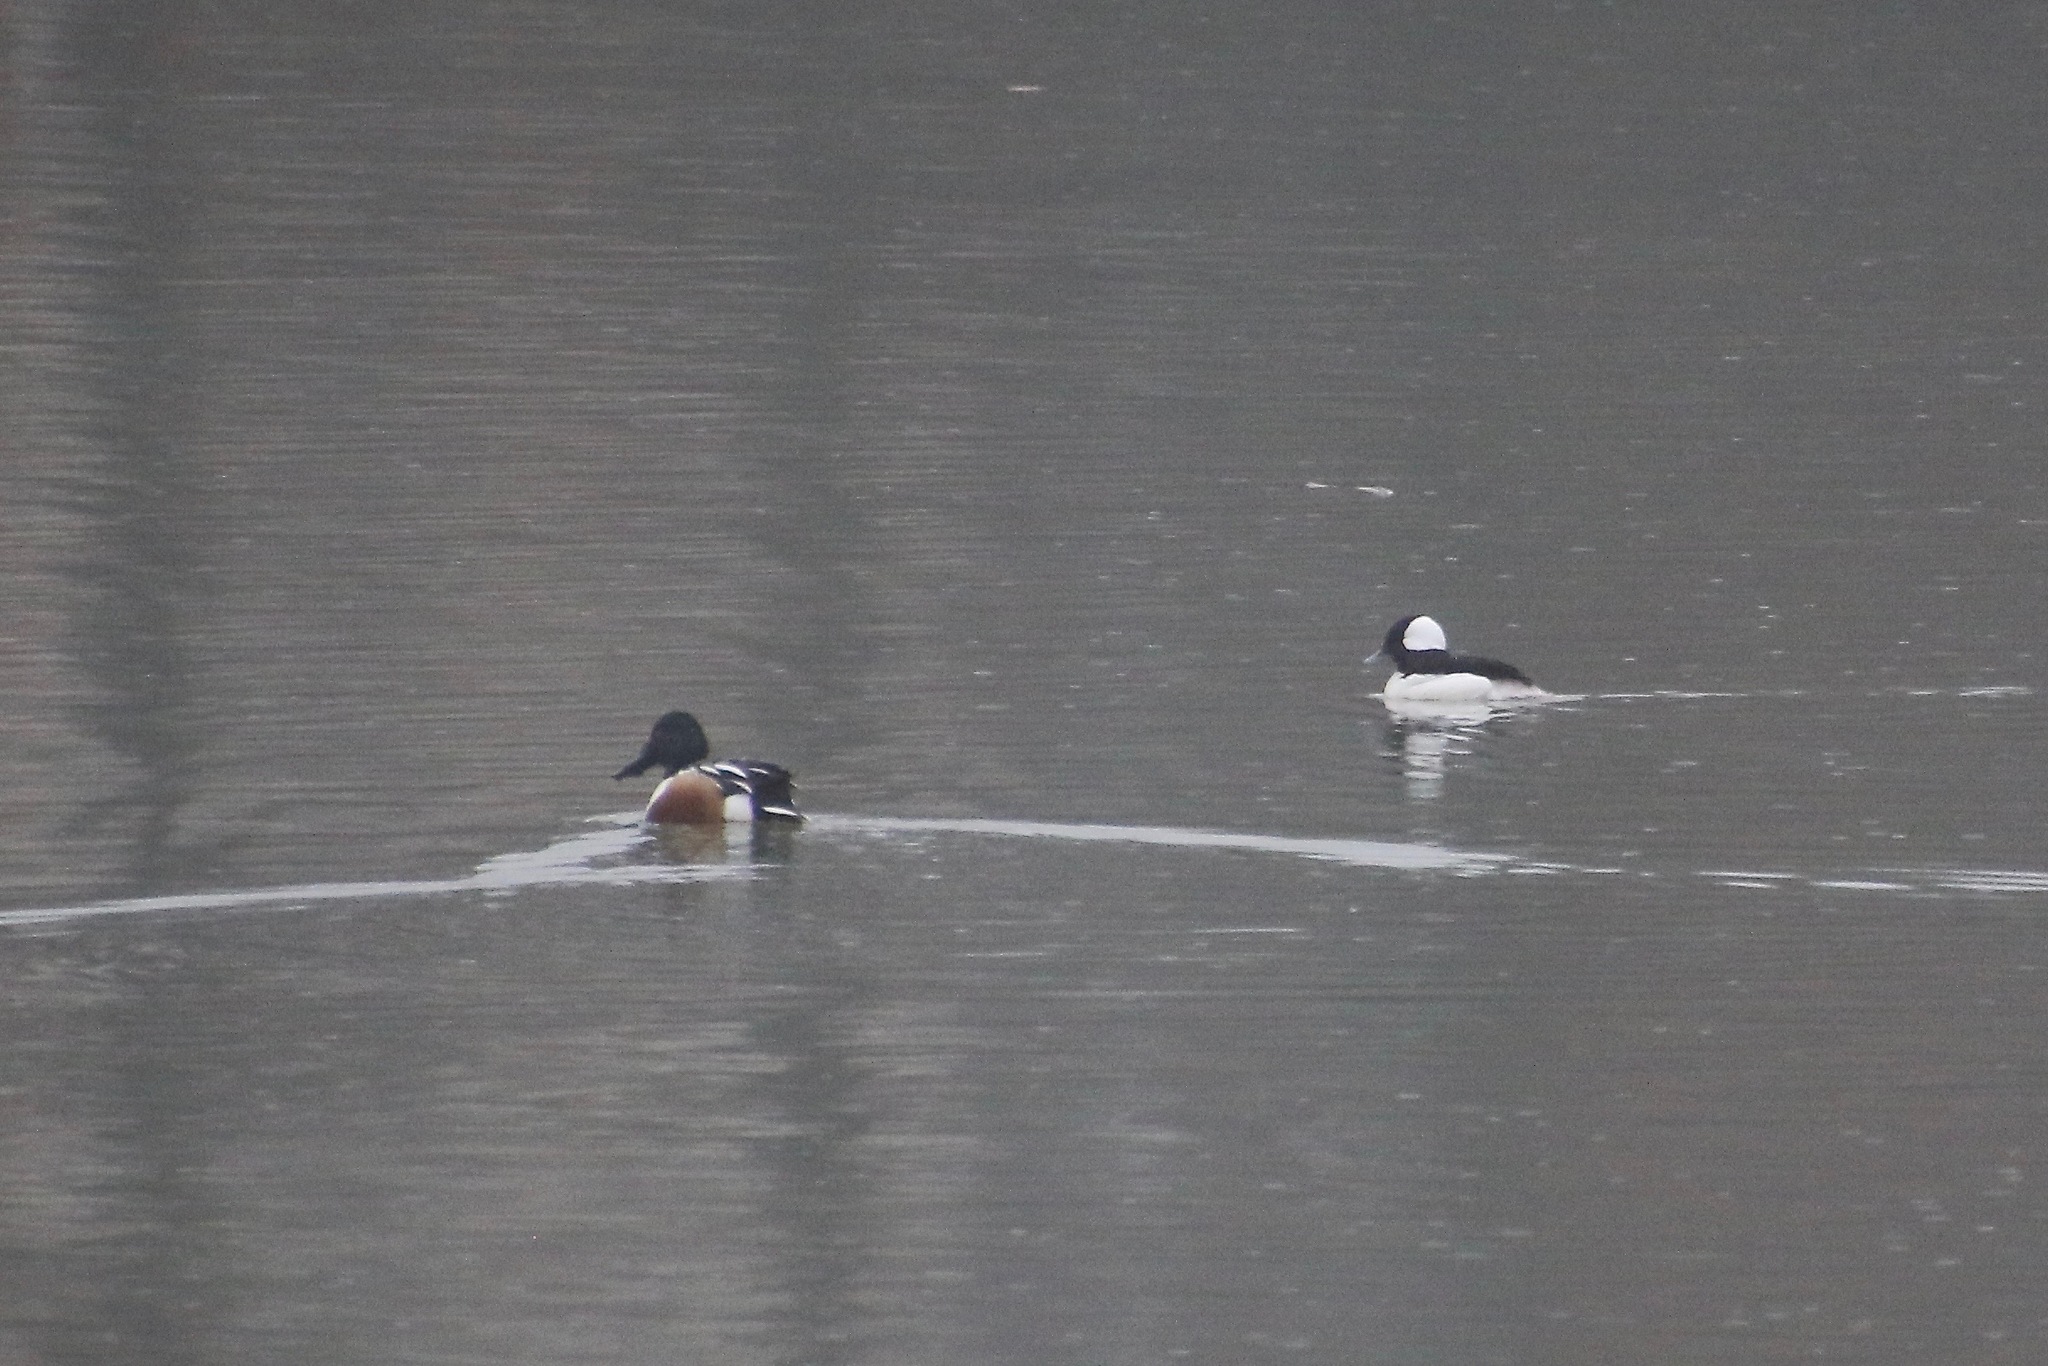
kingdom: Animalia
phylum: Chordata
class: Aves
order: Anseriformes
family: Anatidae
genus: Spatula
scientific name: Spatula clypeata
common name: Northern shoveler
